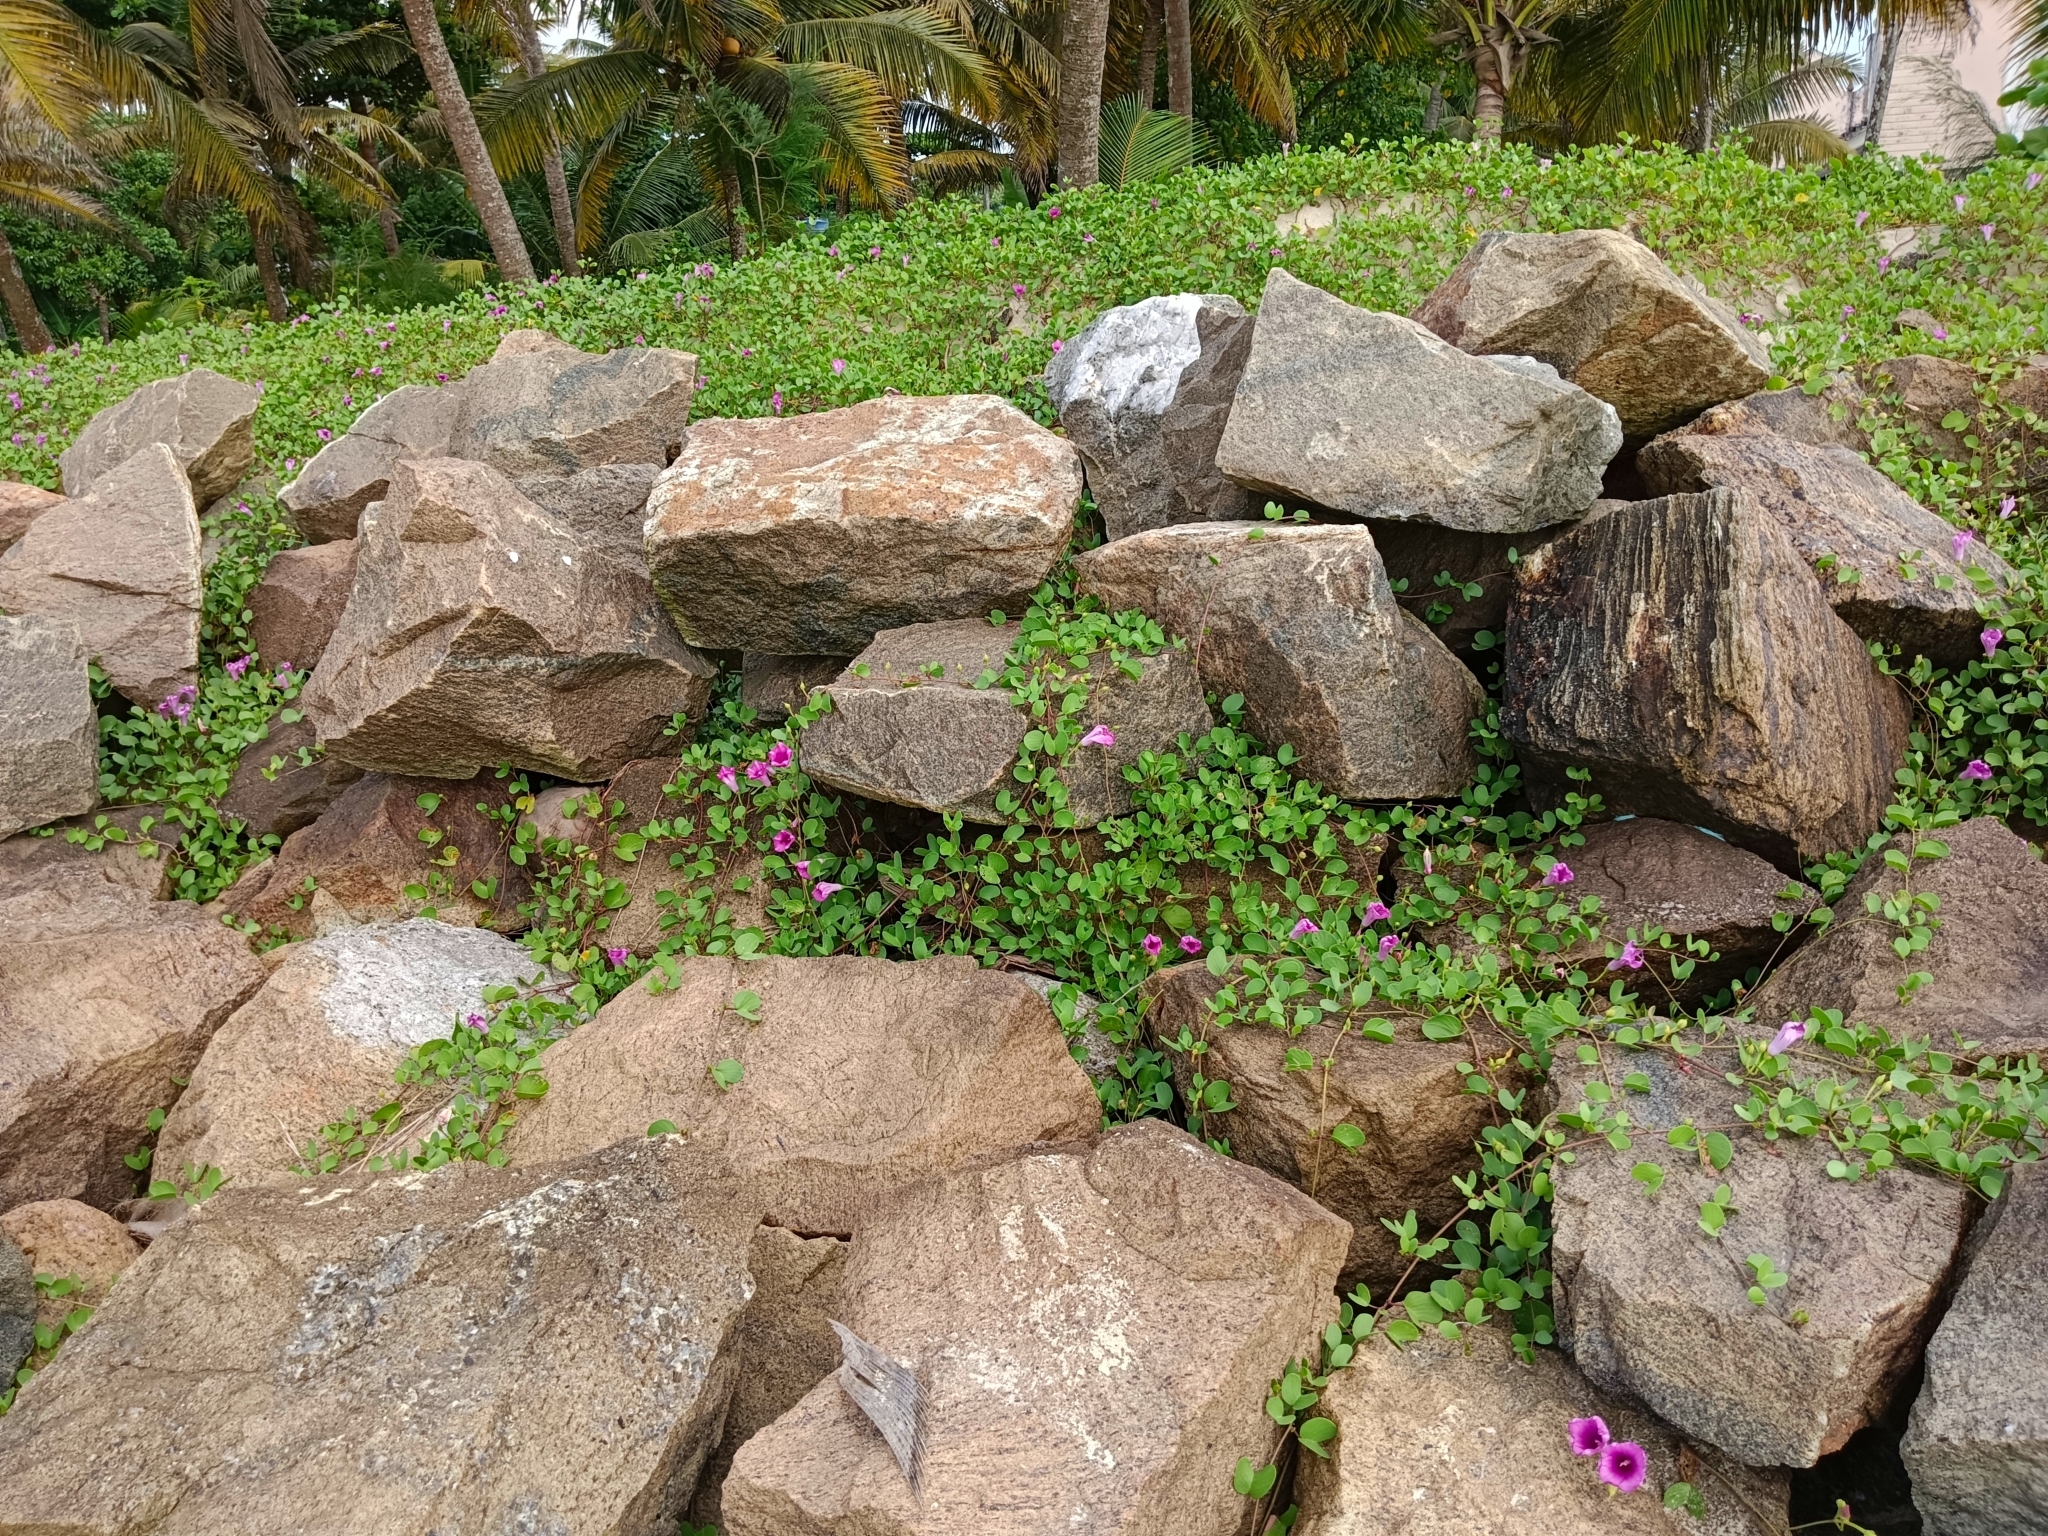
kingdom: Plantae
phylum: Tracheophyta
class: Magnoliopsida
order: Solanales
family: Convolvulaceae
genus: Ipomoea
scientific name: Ipomoea pes-caprae
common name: Beach morning glory
